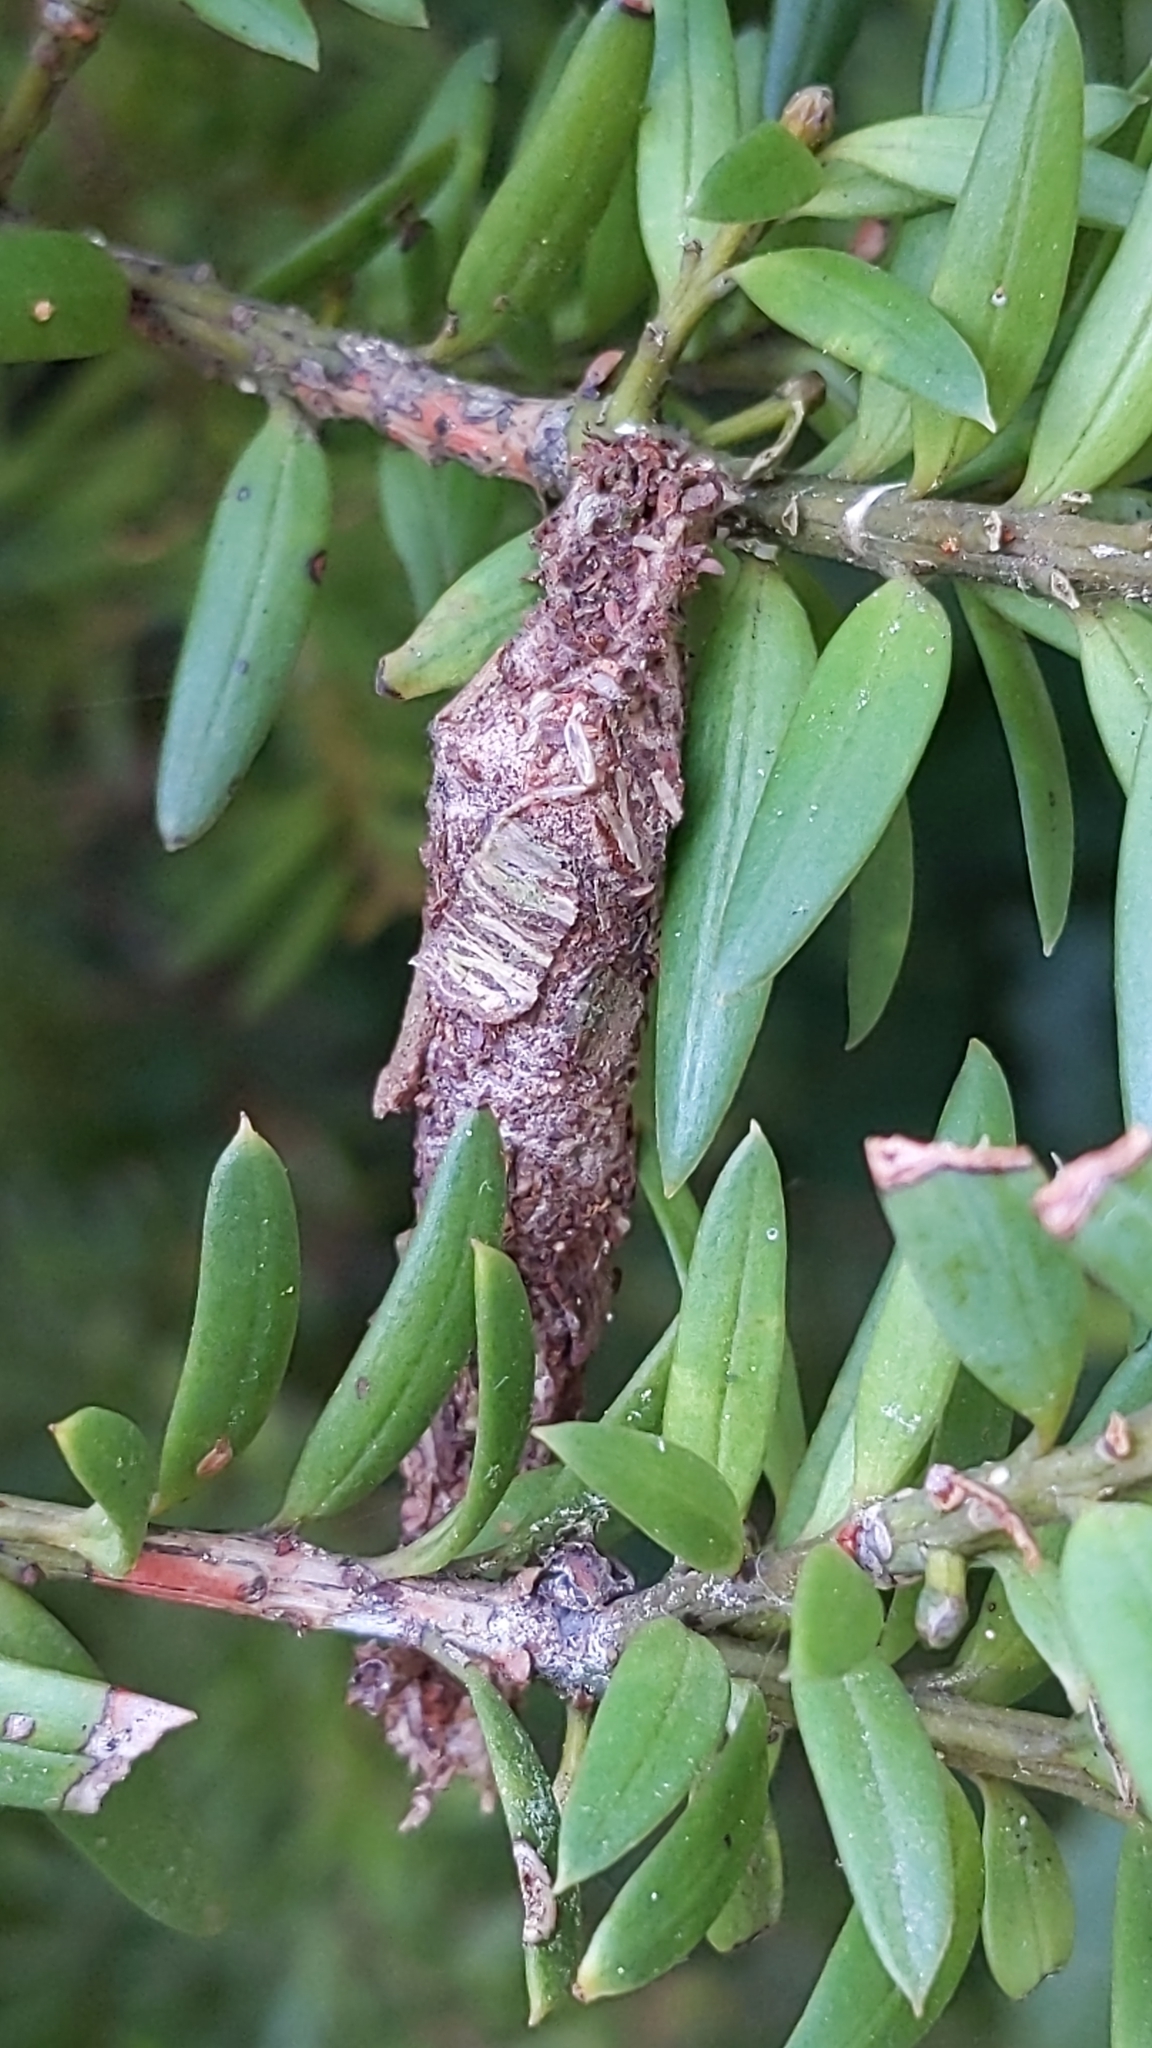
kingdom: Animalia
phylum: Arthropoda
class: Insecta
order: Lepidoptera
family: Psychidae
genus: Liothula
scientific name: Liothula omnivora
